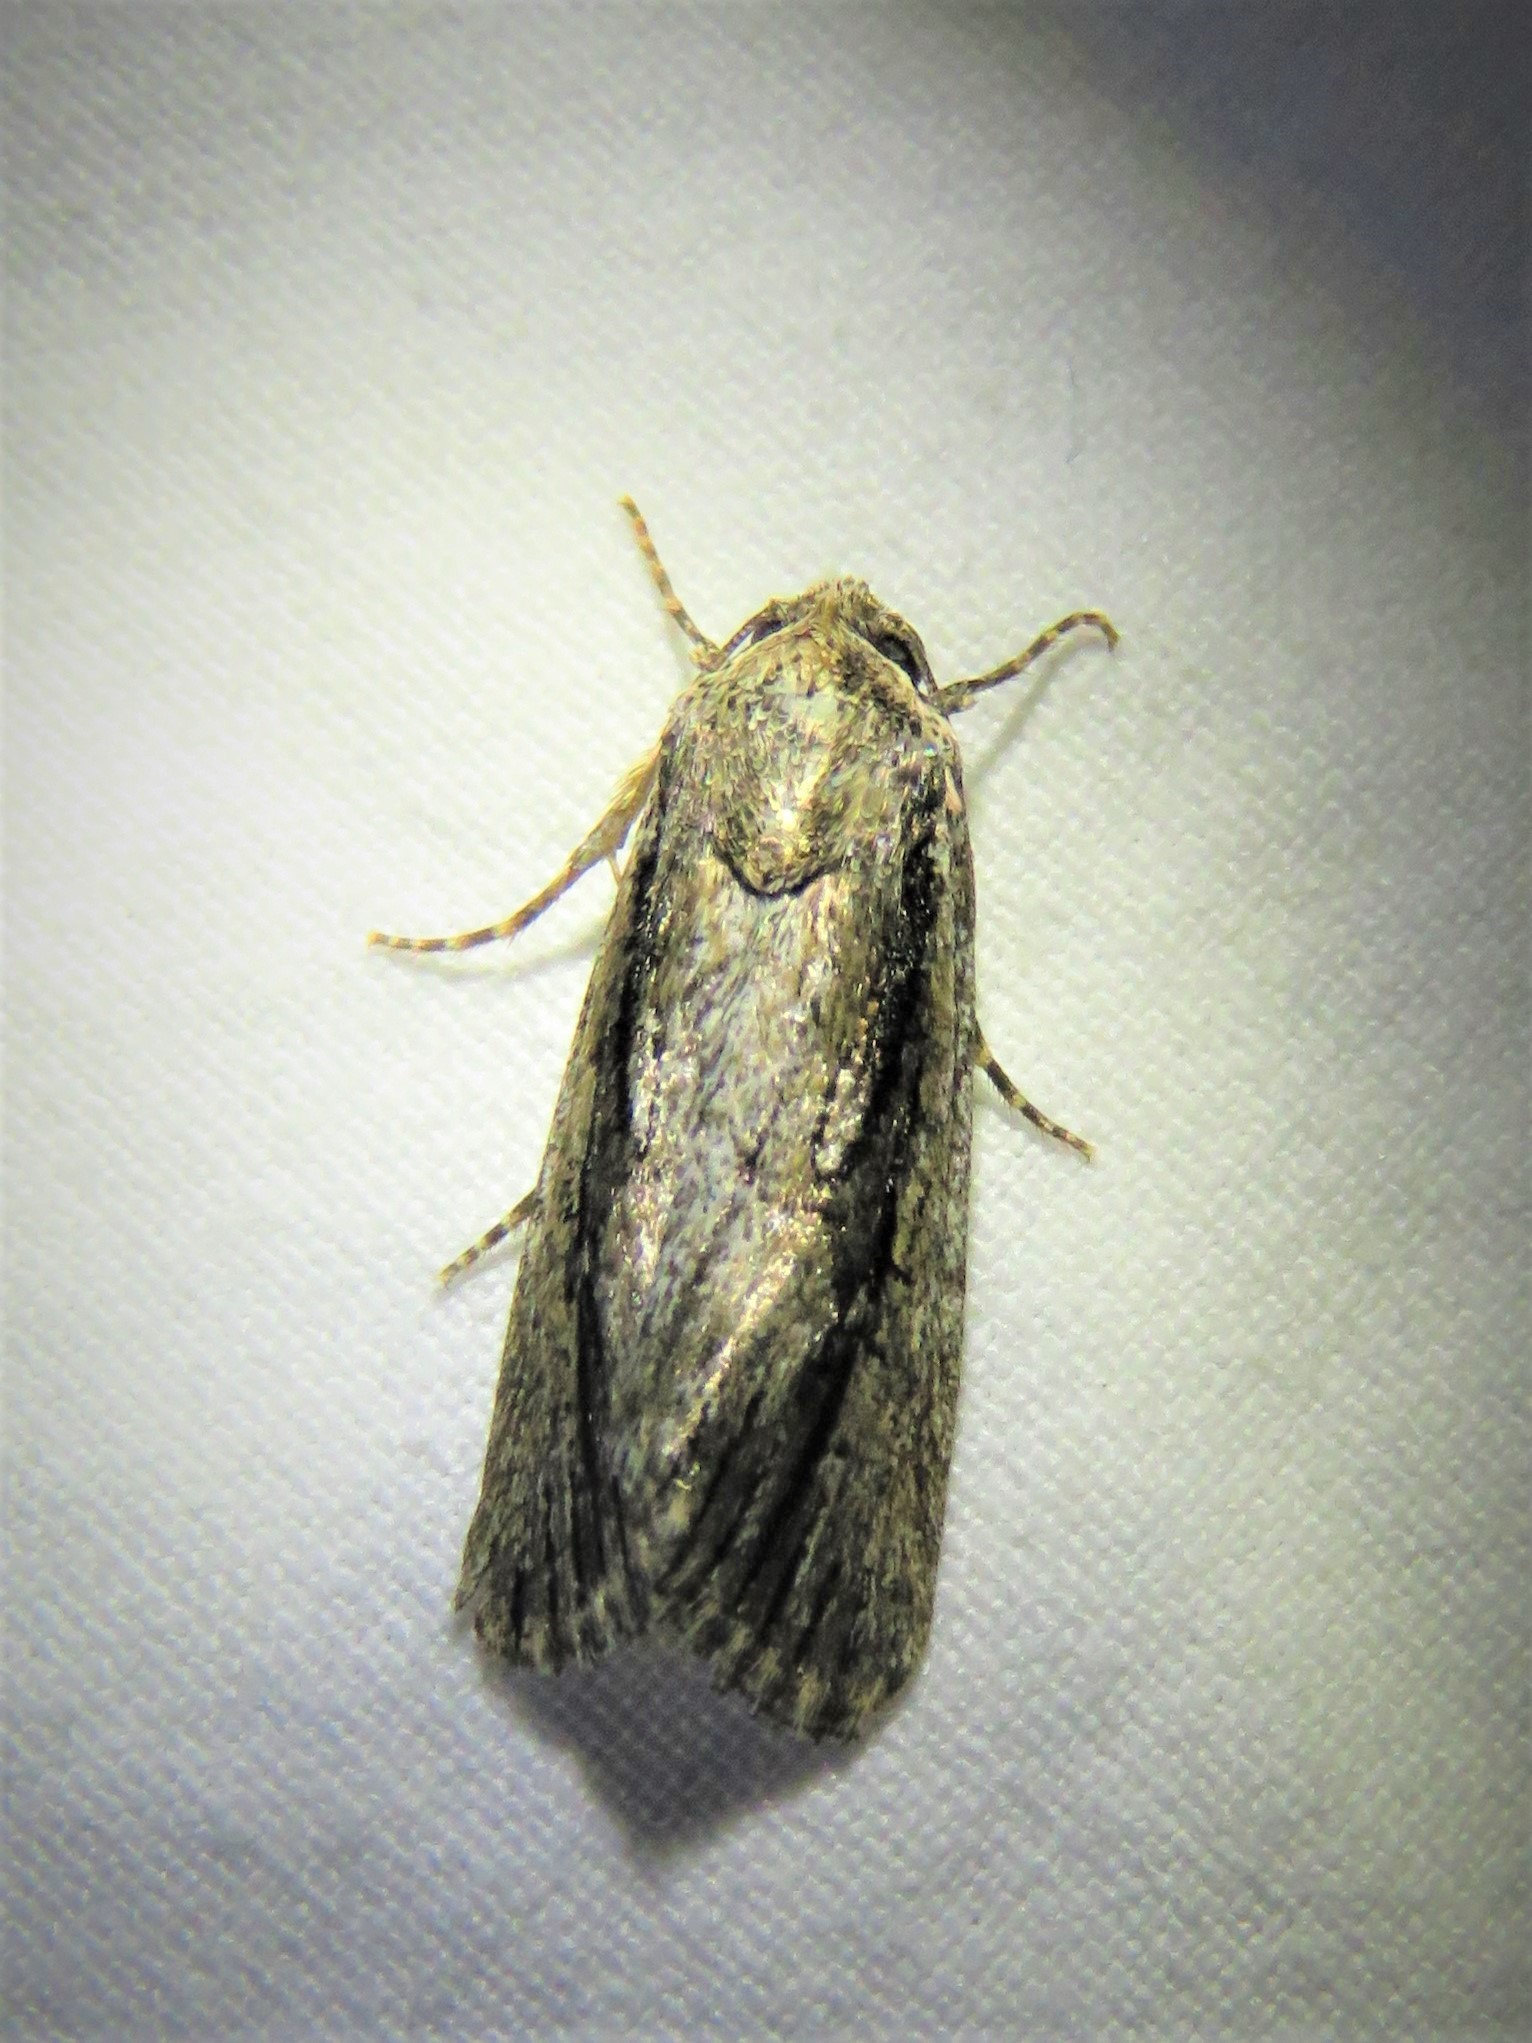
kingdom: Animalia
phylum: Arthropoda
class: Insecta
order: Lepidoptera
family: Noctuidae
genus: Sympistis
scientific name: Sympistis atricollaris
